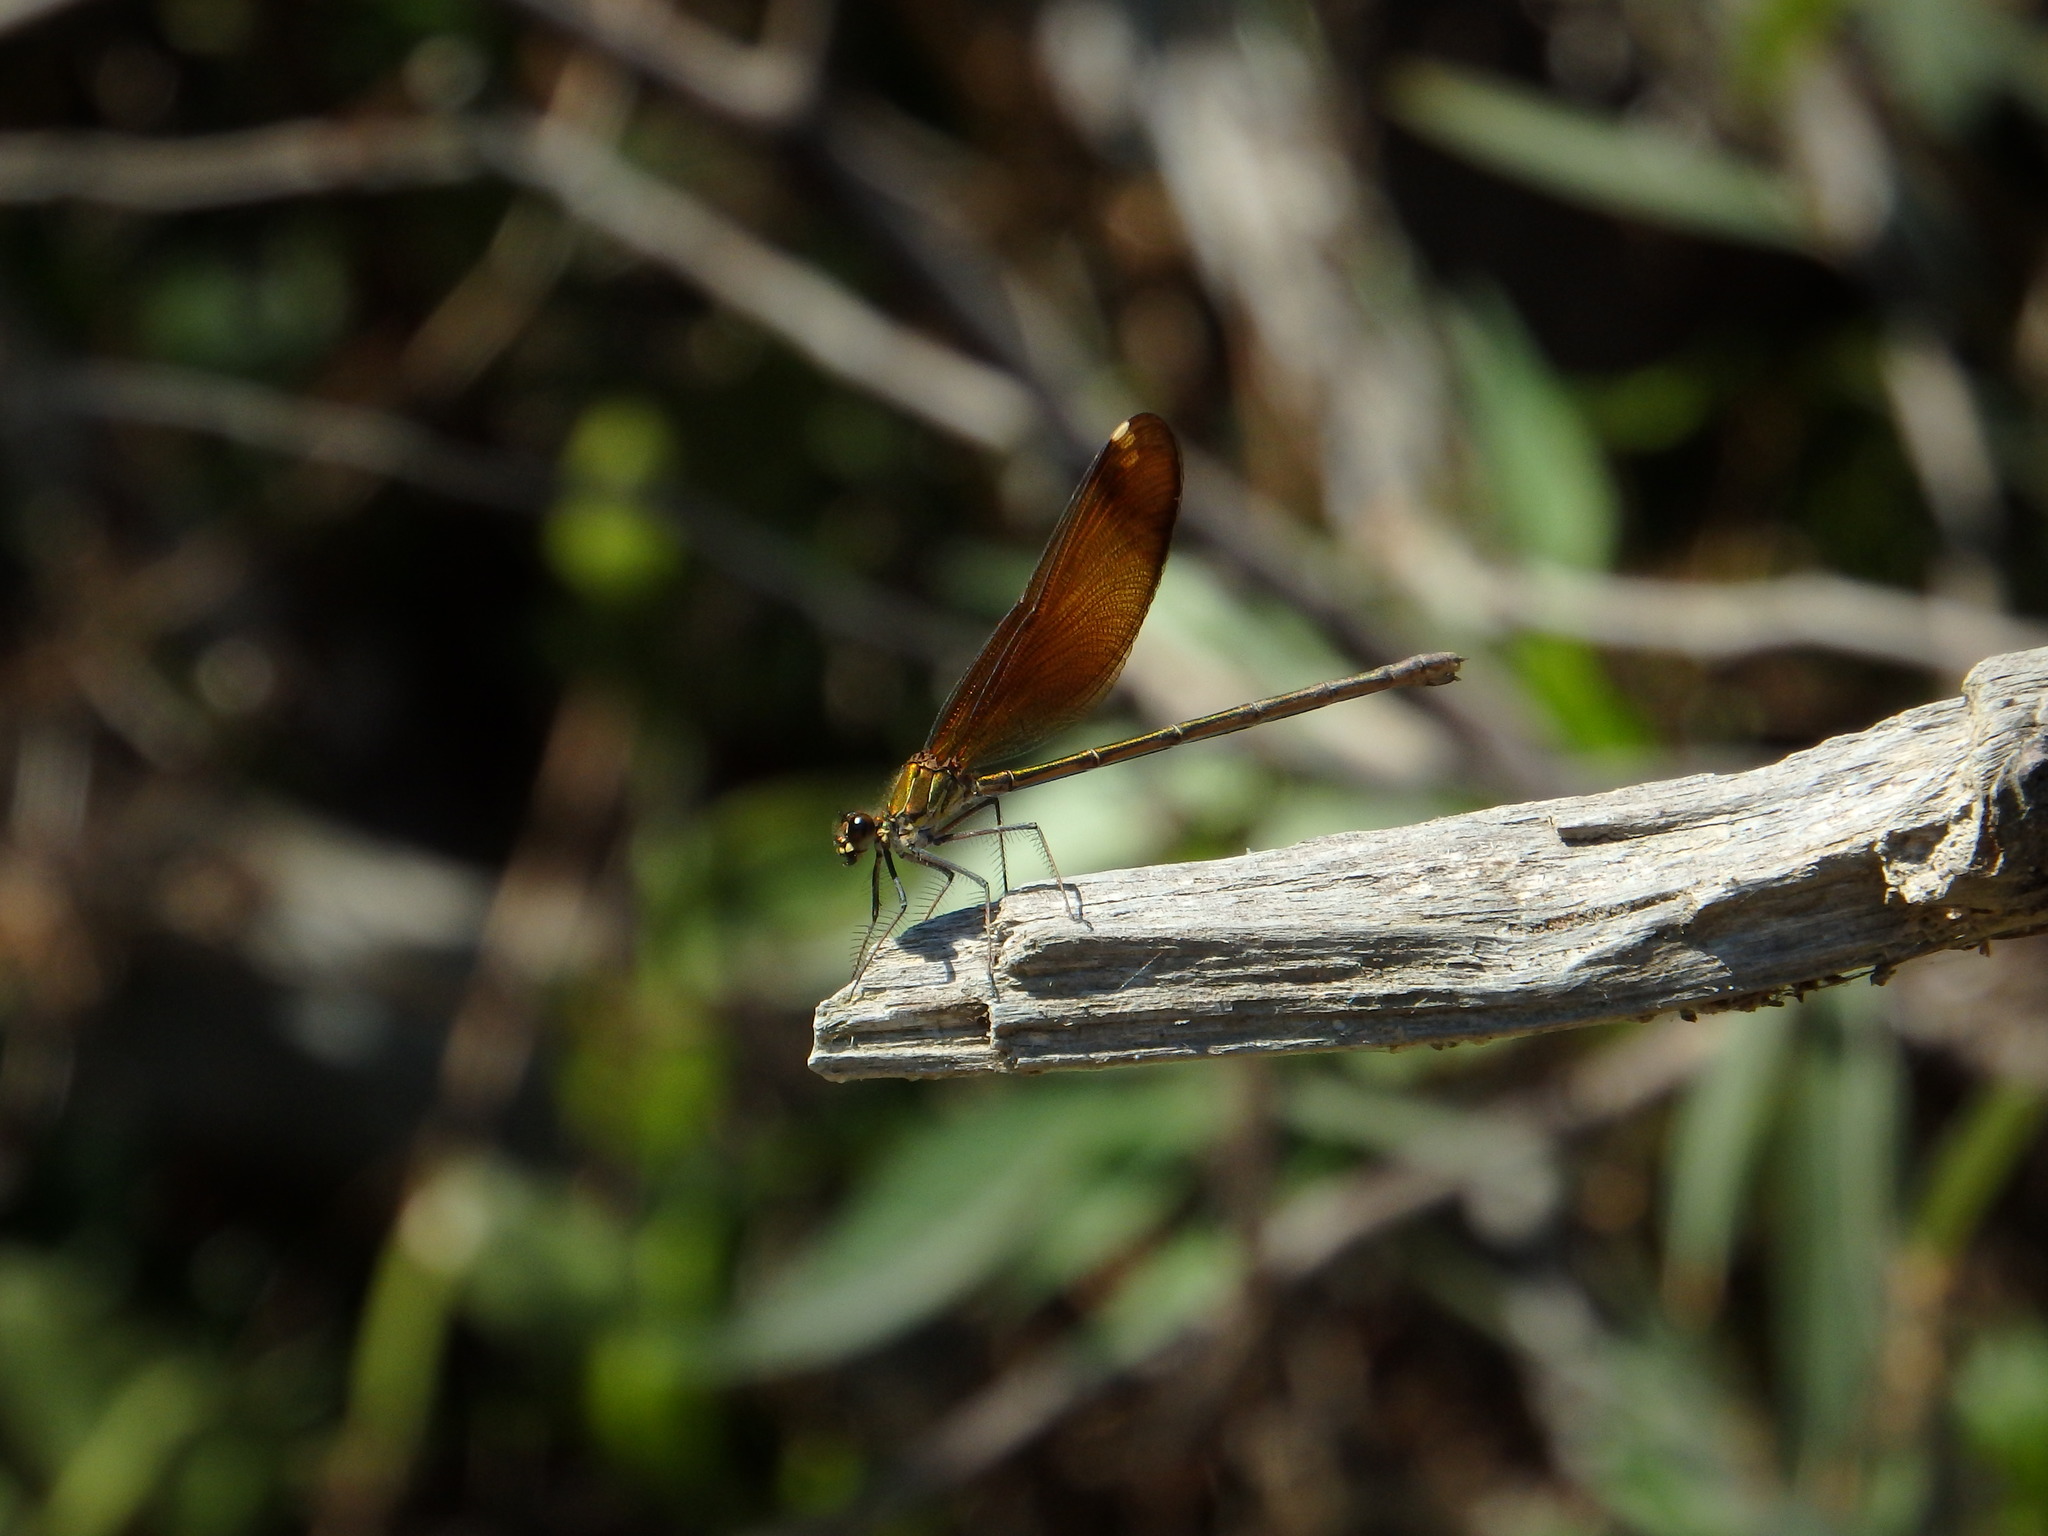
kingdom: Animalia
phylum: Arthropoda
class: Insecta
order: Odonata
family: Calopterygidae
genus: Calopteryx
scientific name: Calopteryx haemorrhoidalis
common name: Copper demoiselle
